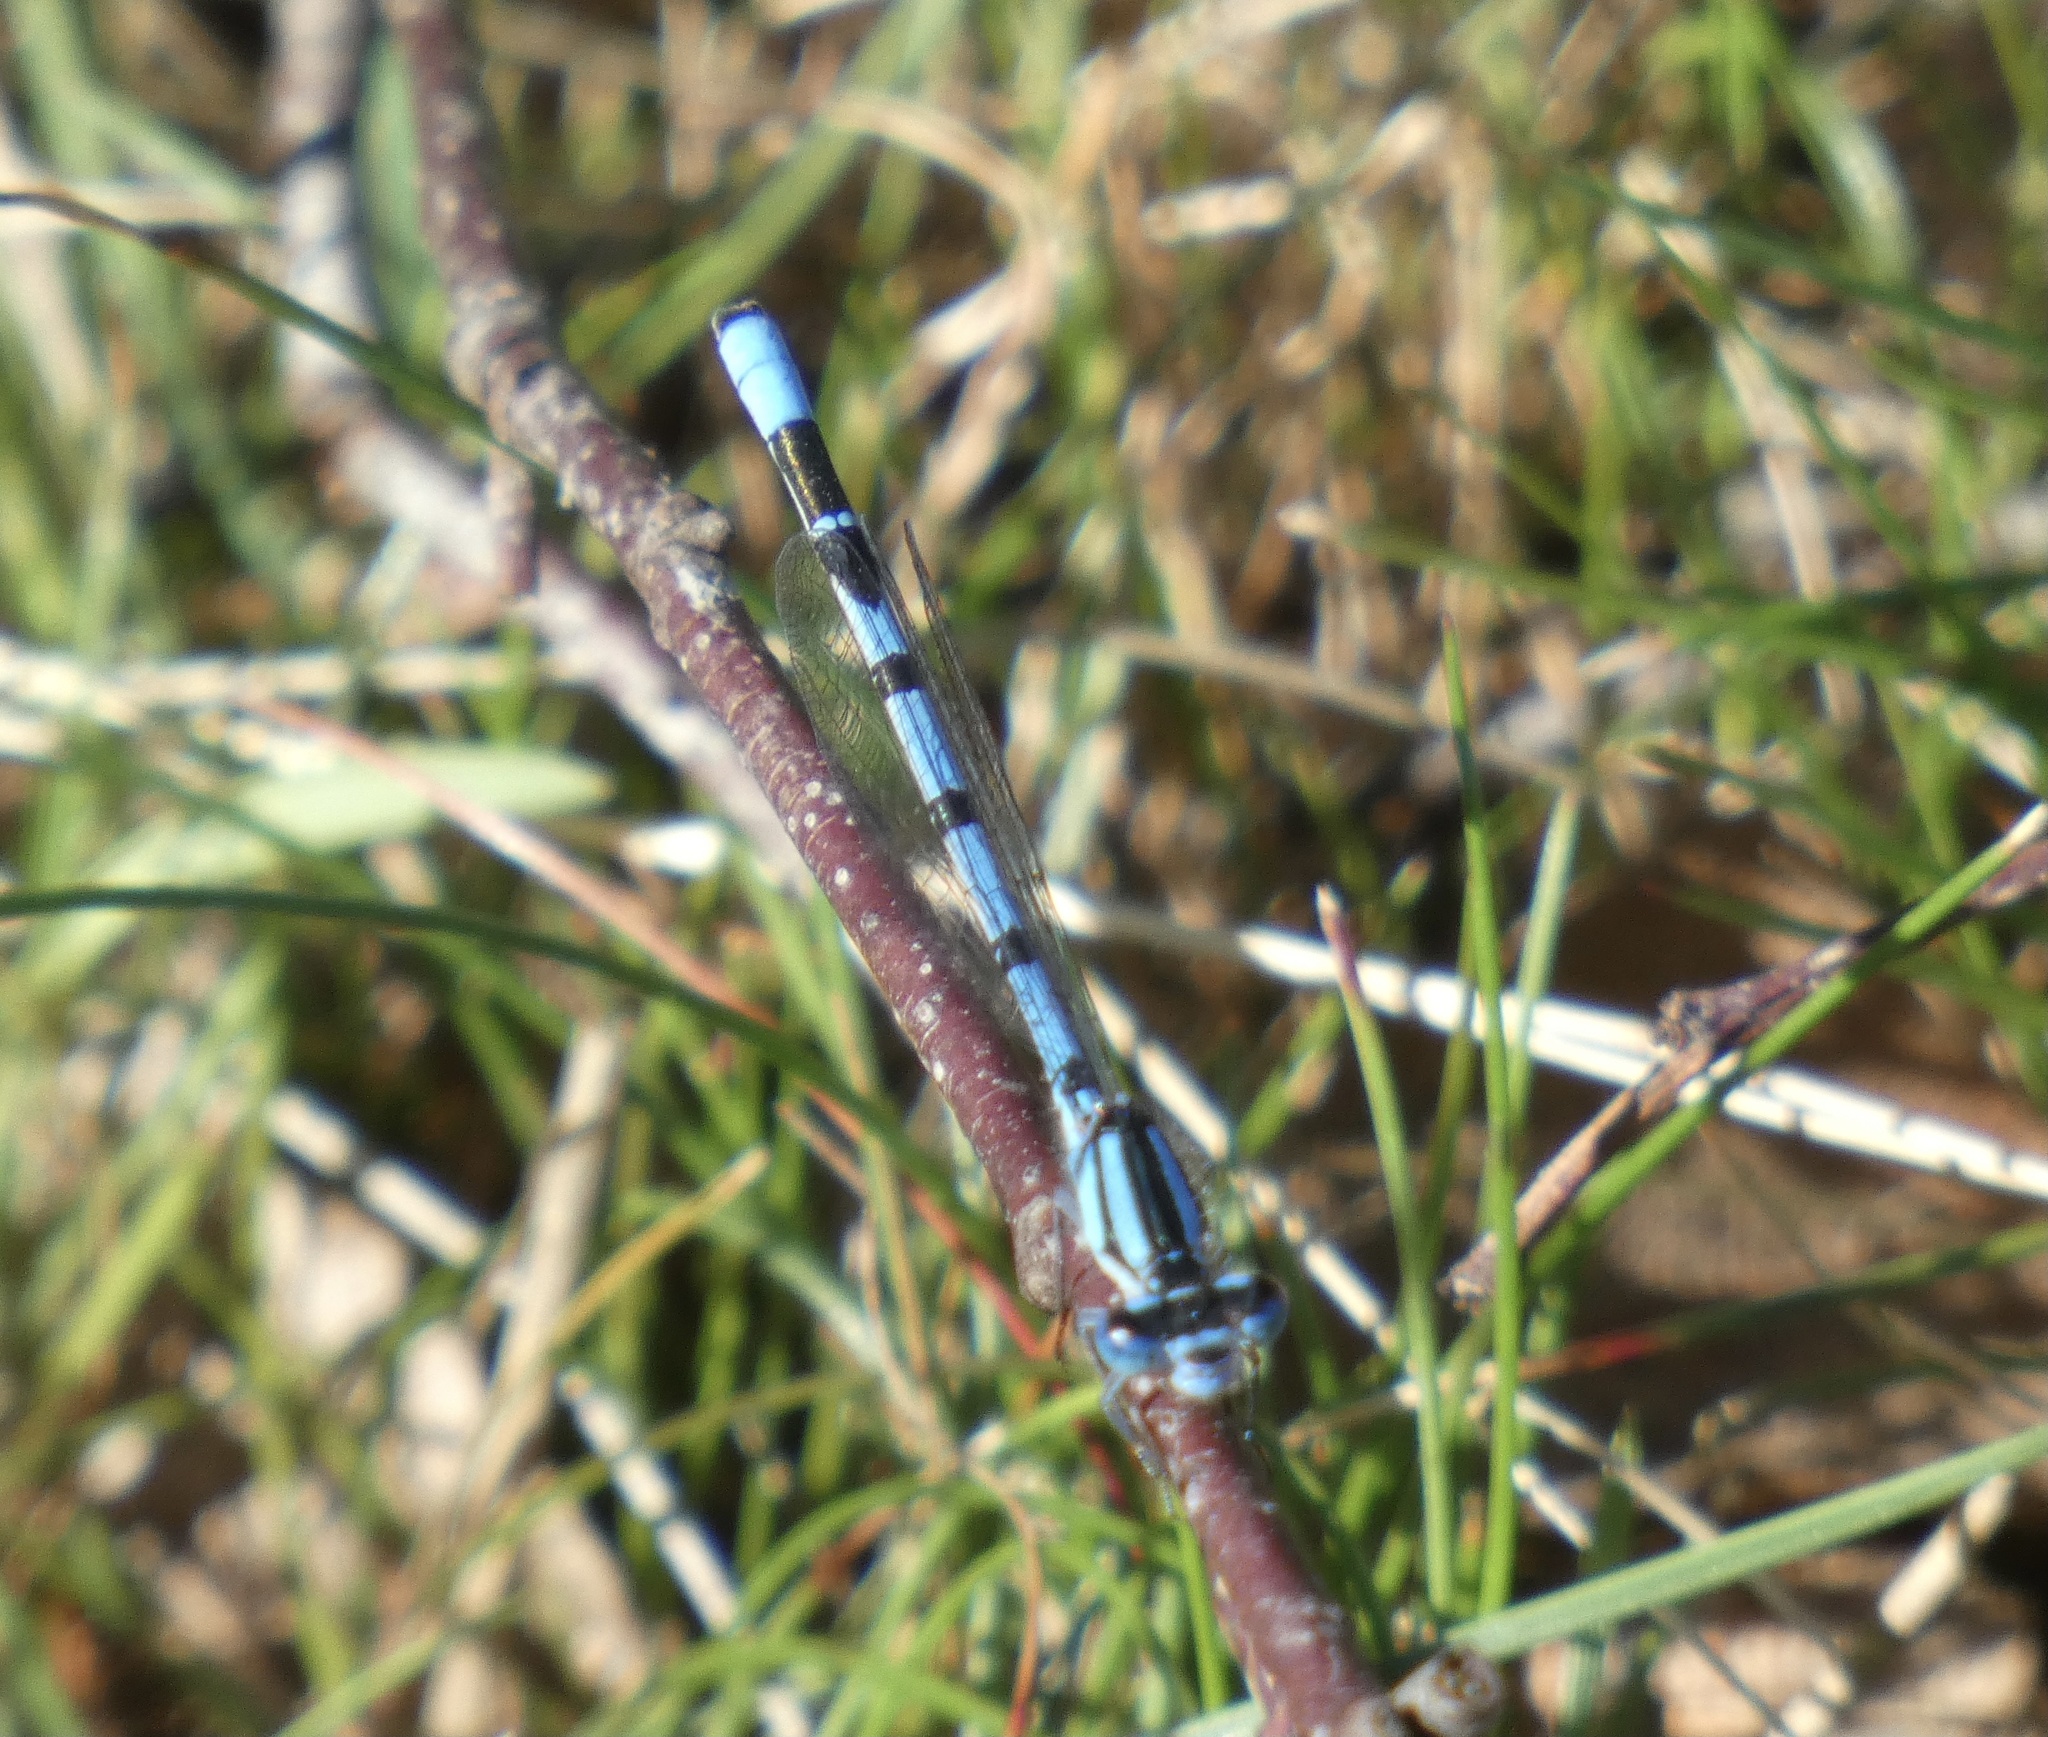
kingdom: Animalia
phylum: Arthropoda
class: Insecta
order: Odonata
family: Coenagrionidae
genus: Enallagma
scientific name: Enallagma cyathigerum
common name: Common blue damselfly
